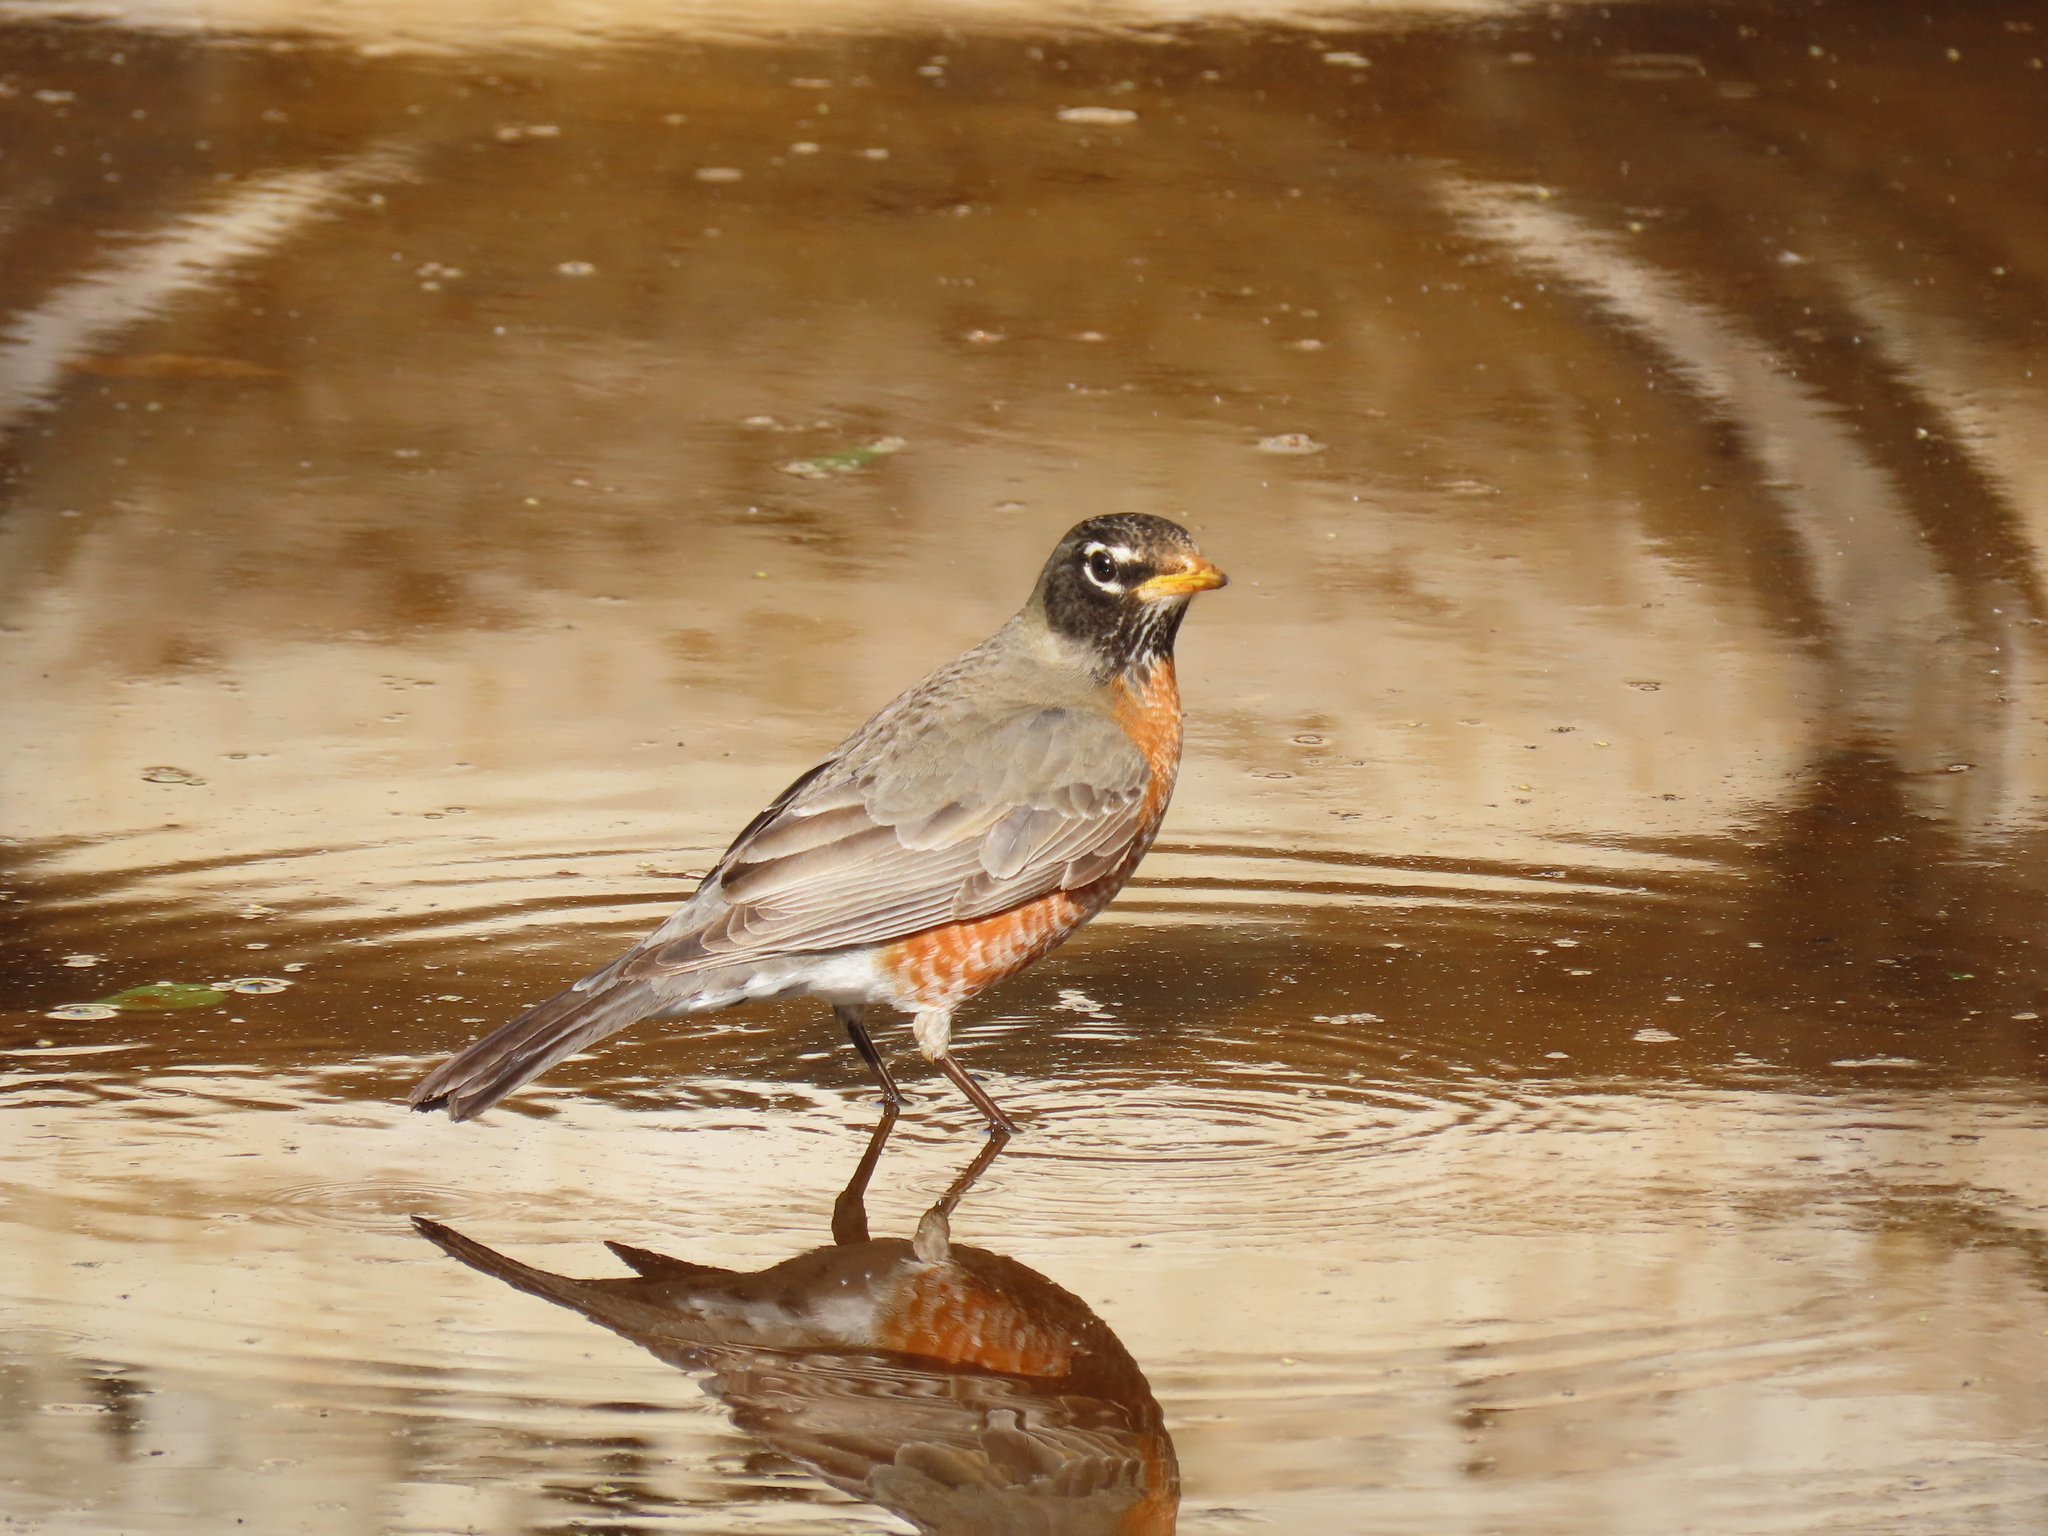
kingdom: Animalia
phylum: Chordata
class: Aves
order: Passeriformes
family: Turdidae
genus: Turdus
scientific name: Turdus migratorius
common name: American robin
